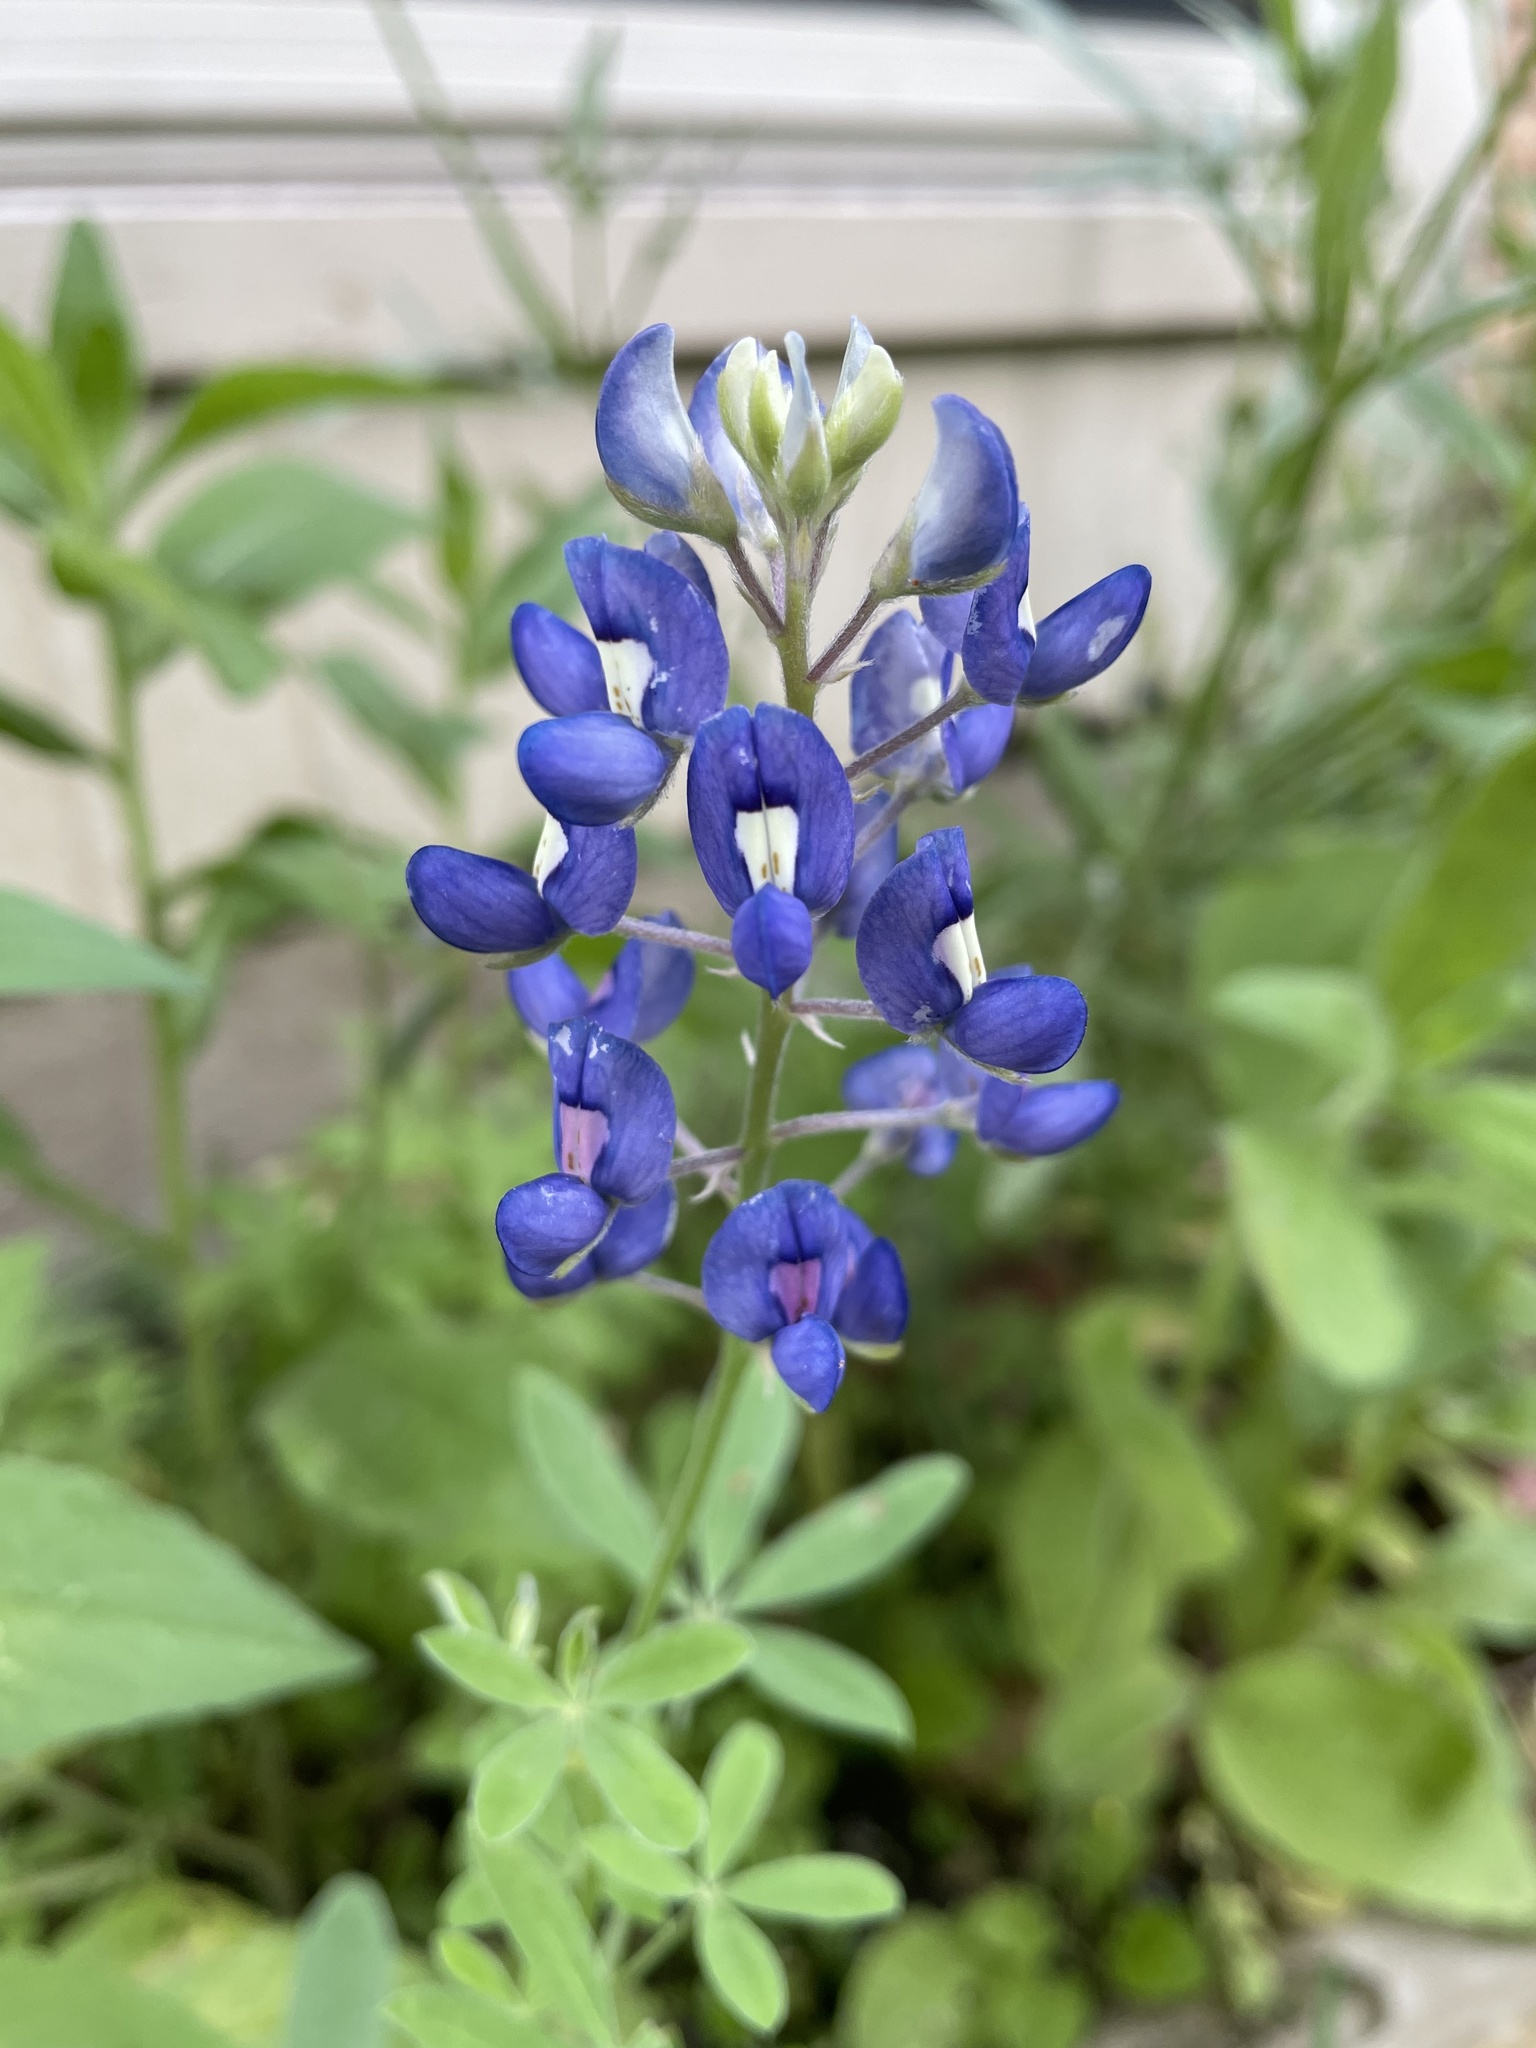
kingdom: Plantae
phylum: Tracheophyta
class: Magnoliopsida
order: Fabales
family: Fabaceae
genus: Lupinus
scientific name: Lupinus texensis
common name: Texas bluebonnet
